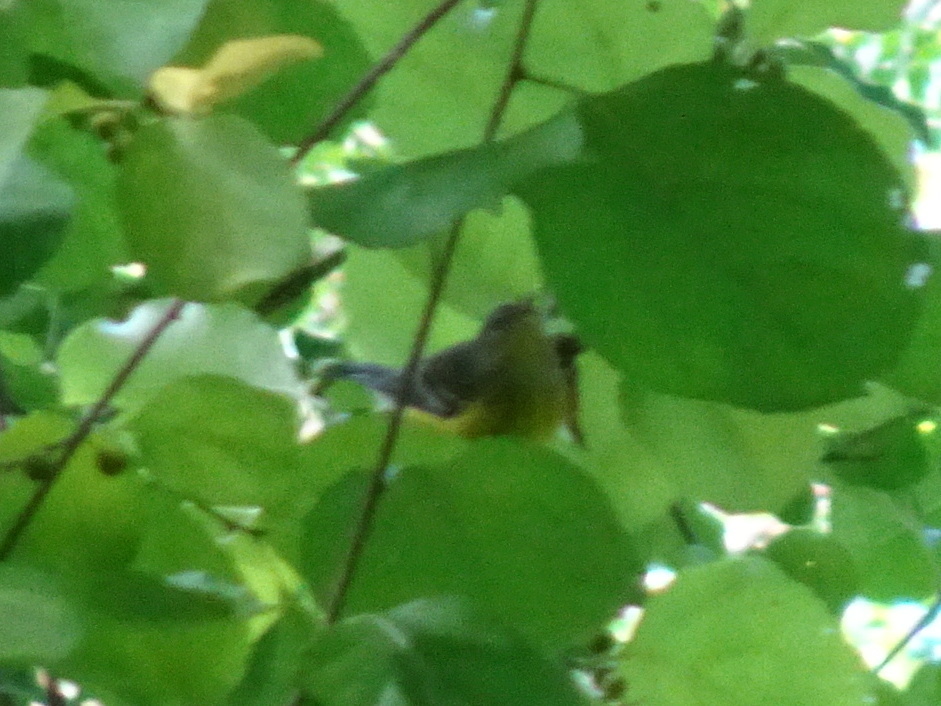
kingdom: Animalia
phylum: Chordata
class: Aves
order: Passeriformes
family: Parulidae
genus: Setophaga
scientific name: Setophaga magnolia
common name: Magnolia warbler
